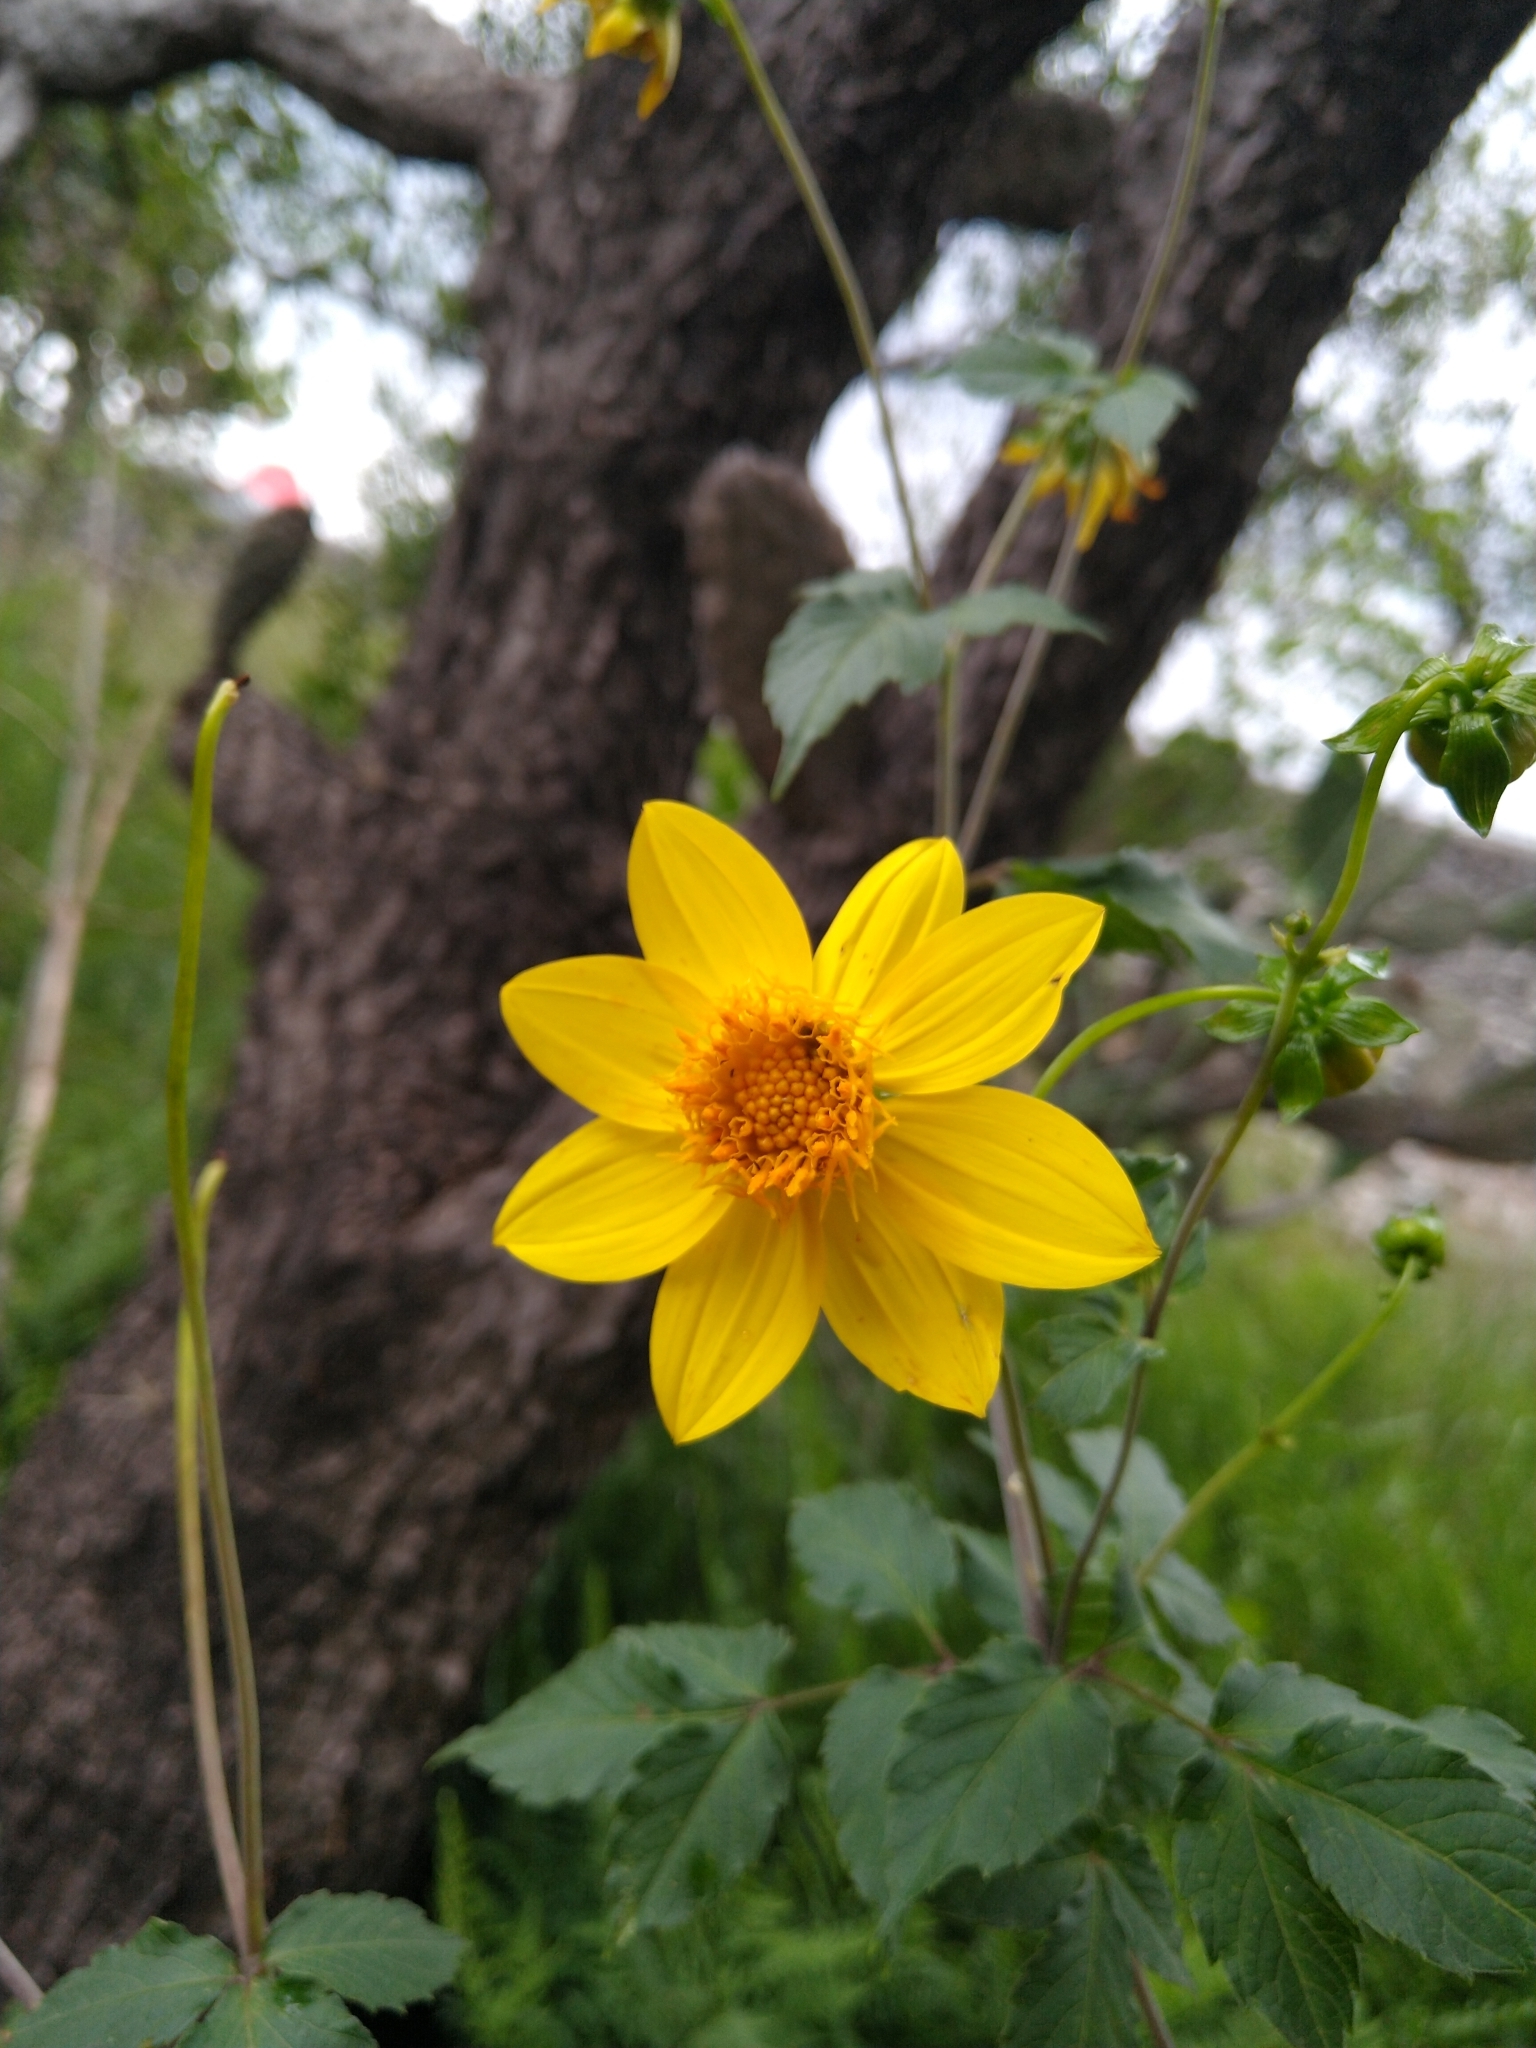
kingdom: Plantae
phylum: Tracheophyta
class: Magnoliopsida
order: Asterales
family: Asteraceae
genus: Dahlia
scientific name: Dahlia coccinea
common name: Red dahlia
